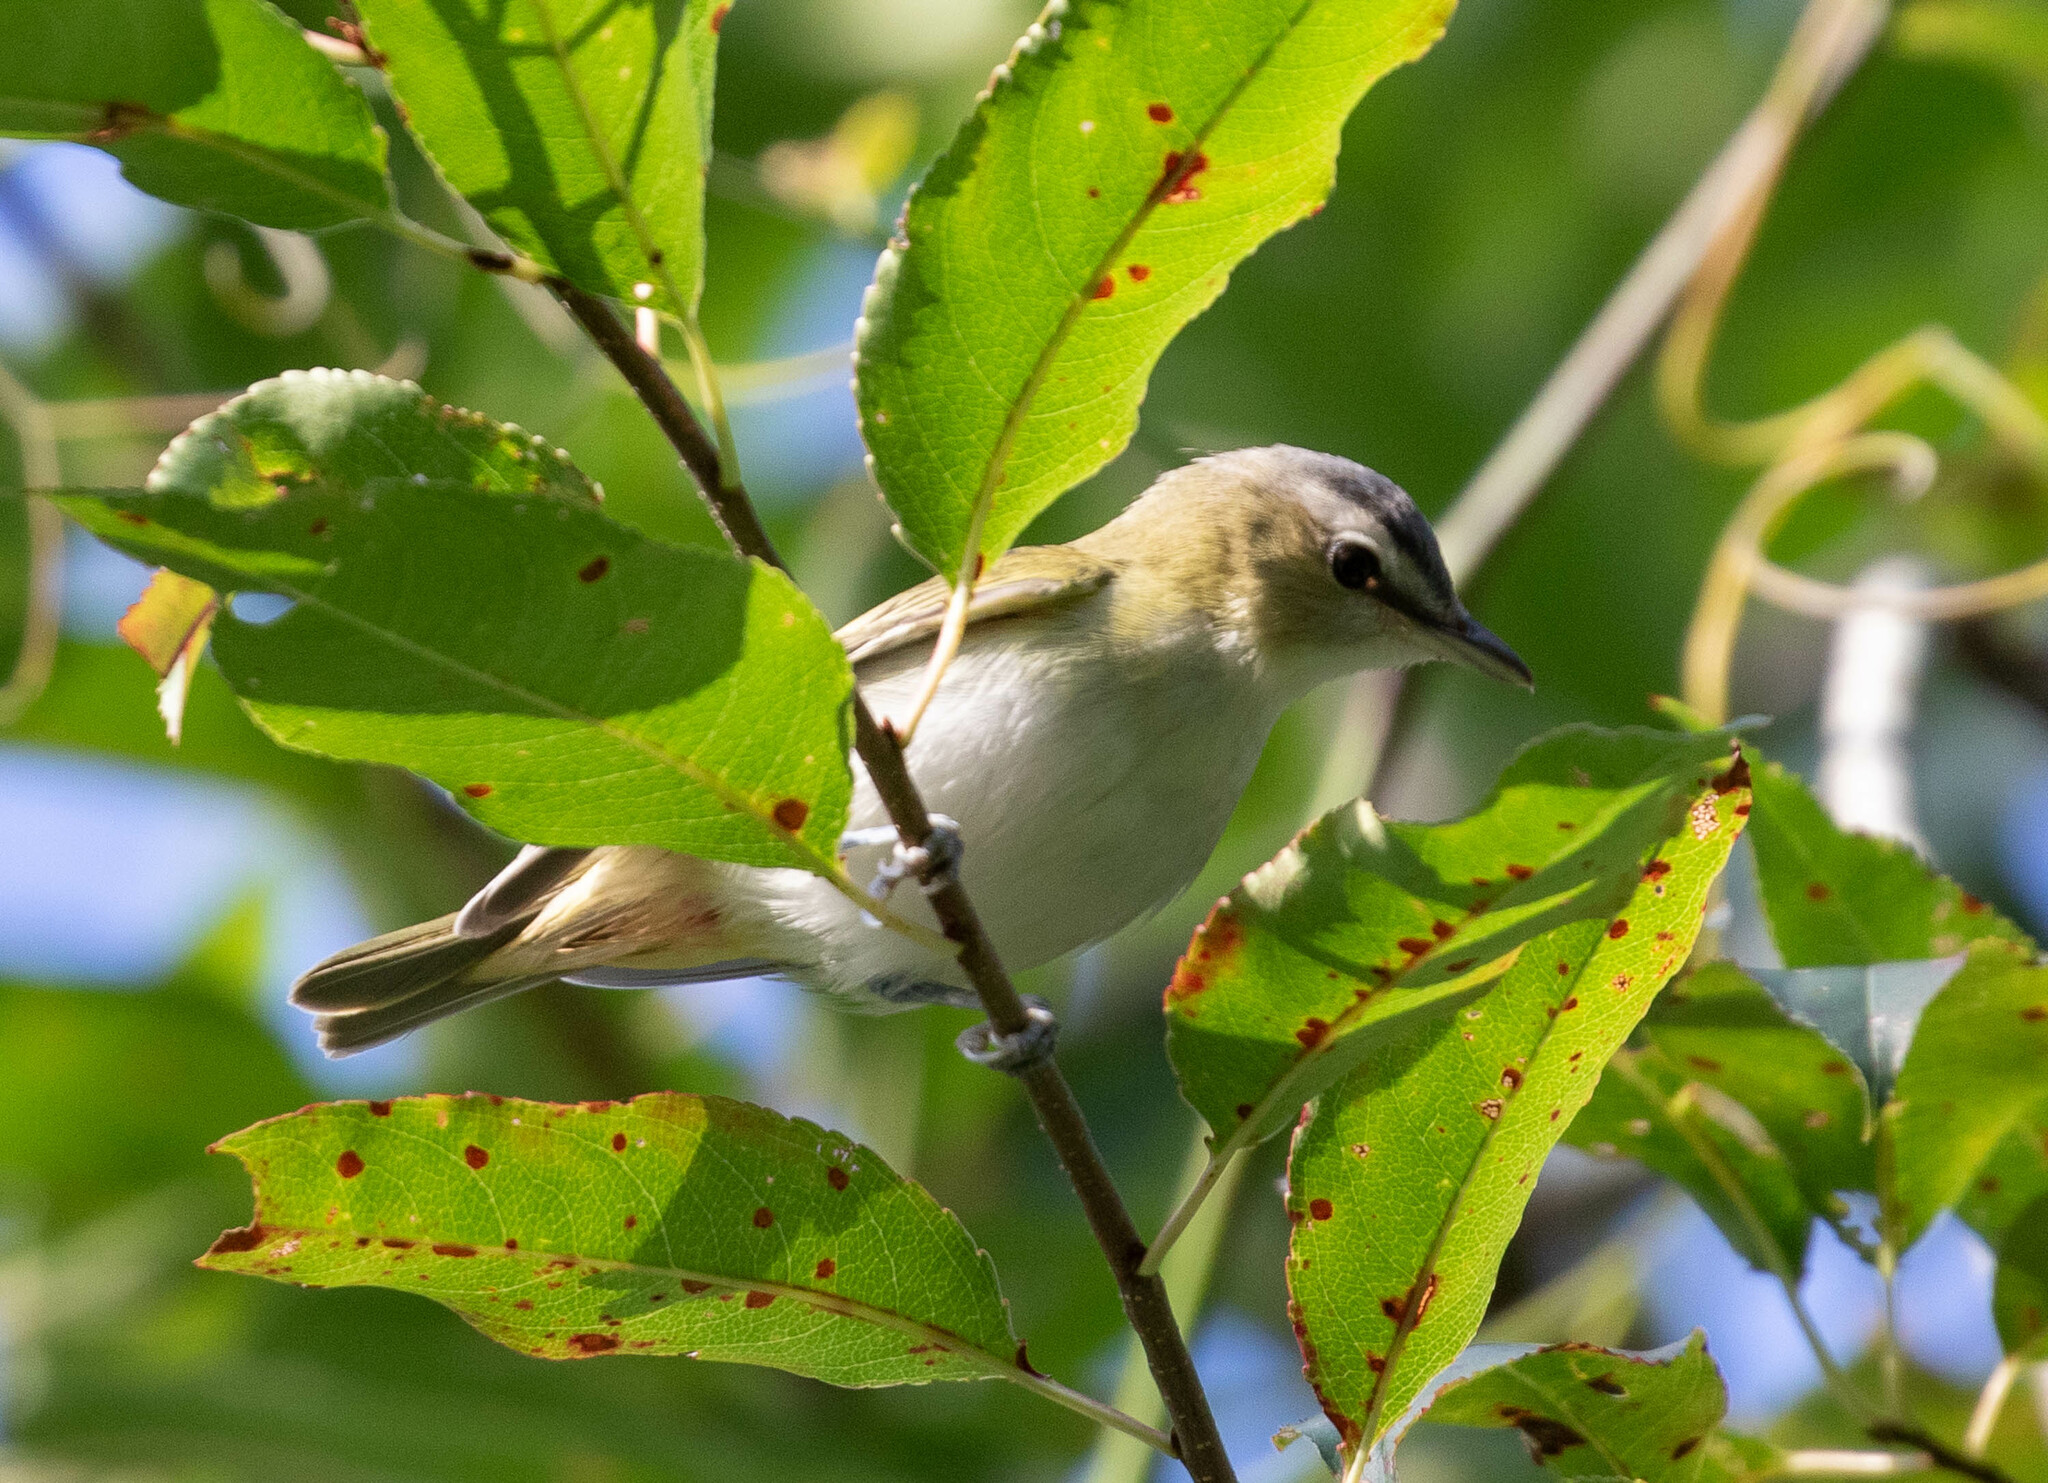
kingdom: Animalia
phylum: Chordata
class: Aves
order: Passeriformes
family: Vireonidae
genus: Vireo
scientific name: Vireo olivaceus
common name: Red-eyed vireo
